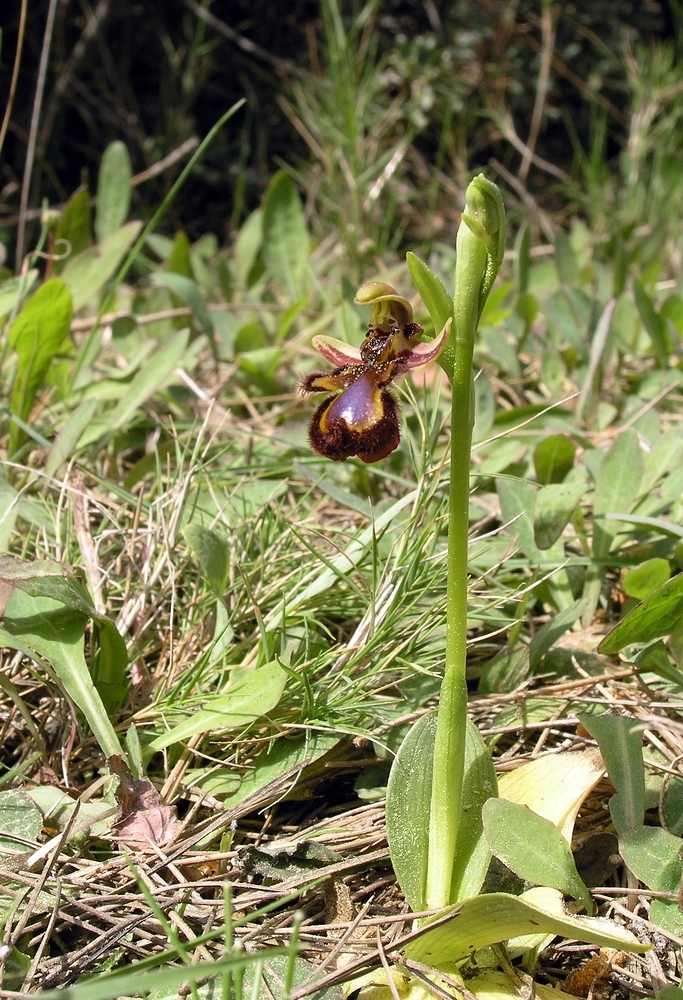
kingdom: Plantae
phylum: Tracheophyta
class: Liliopsida
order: Asparagales
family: Orchidaceae
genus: Ophrys
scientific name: Ophrys speculum
